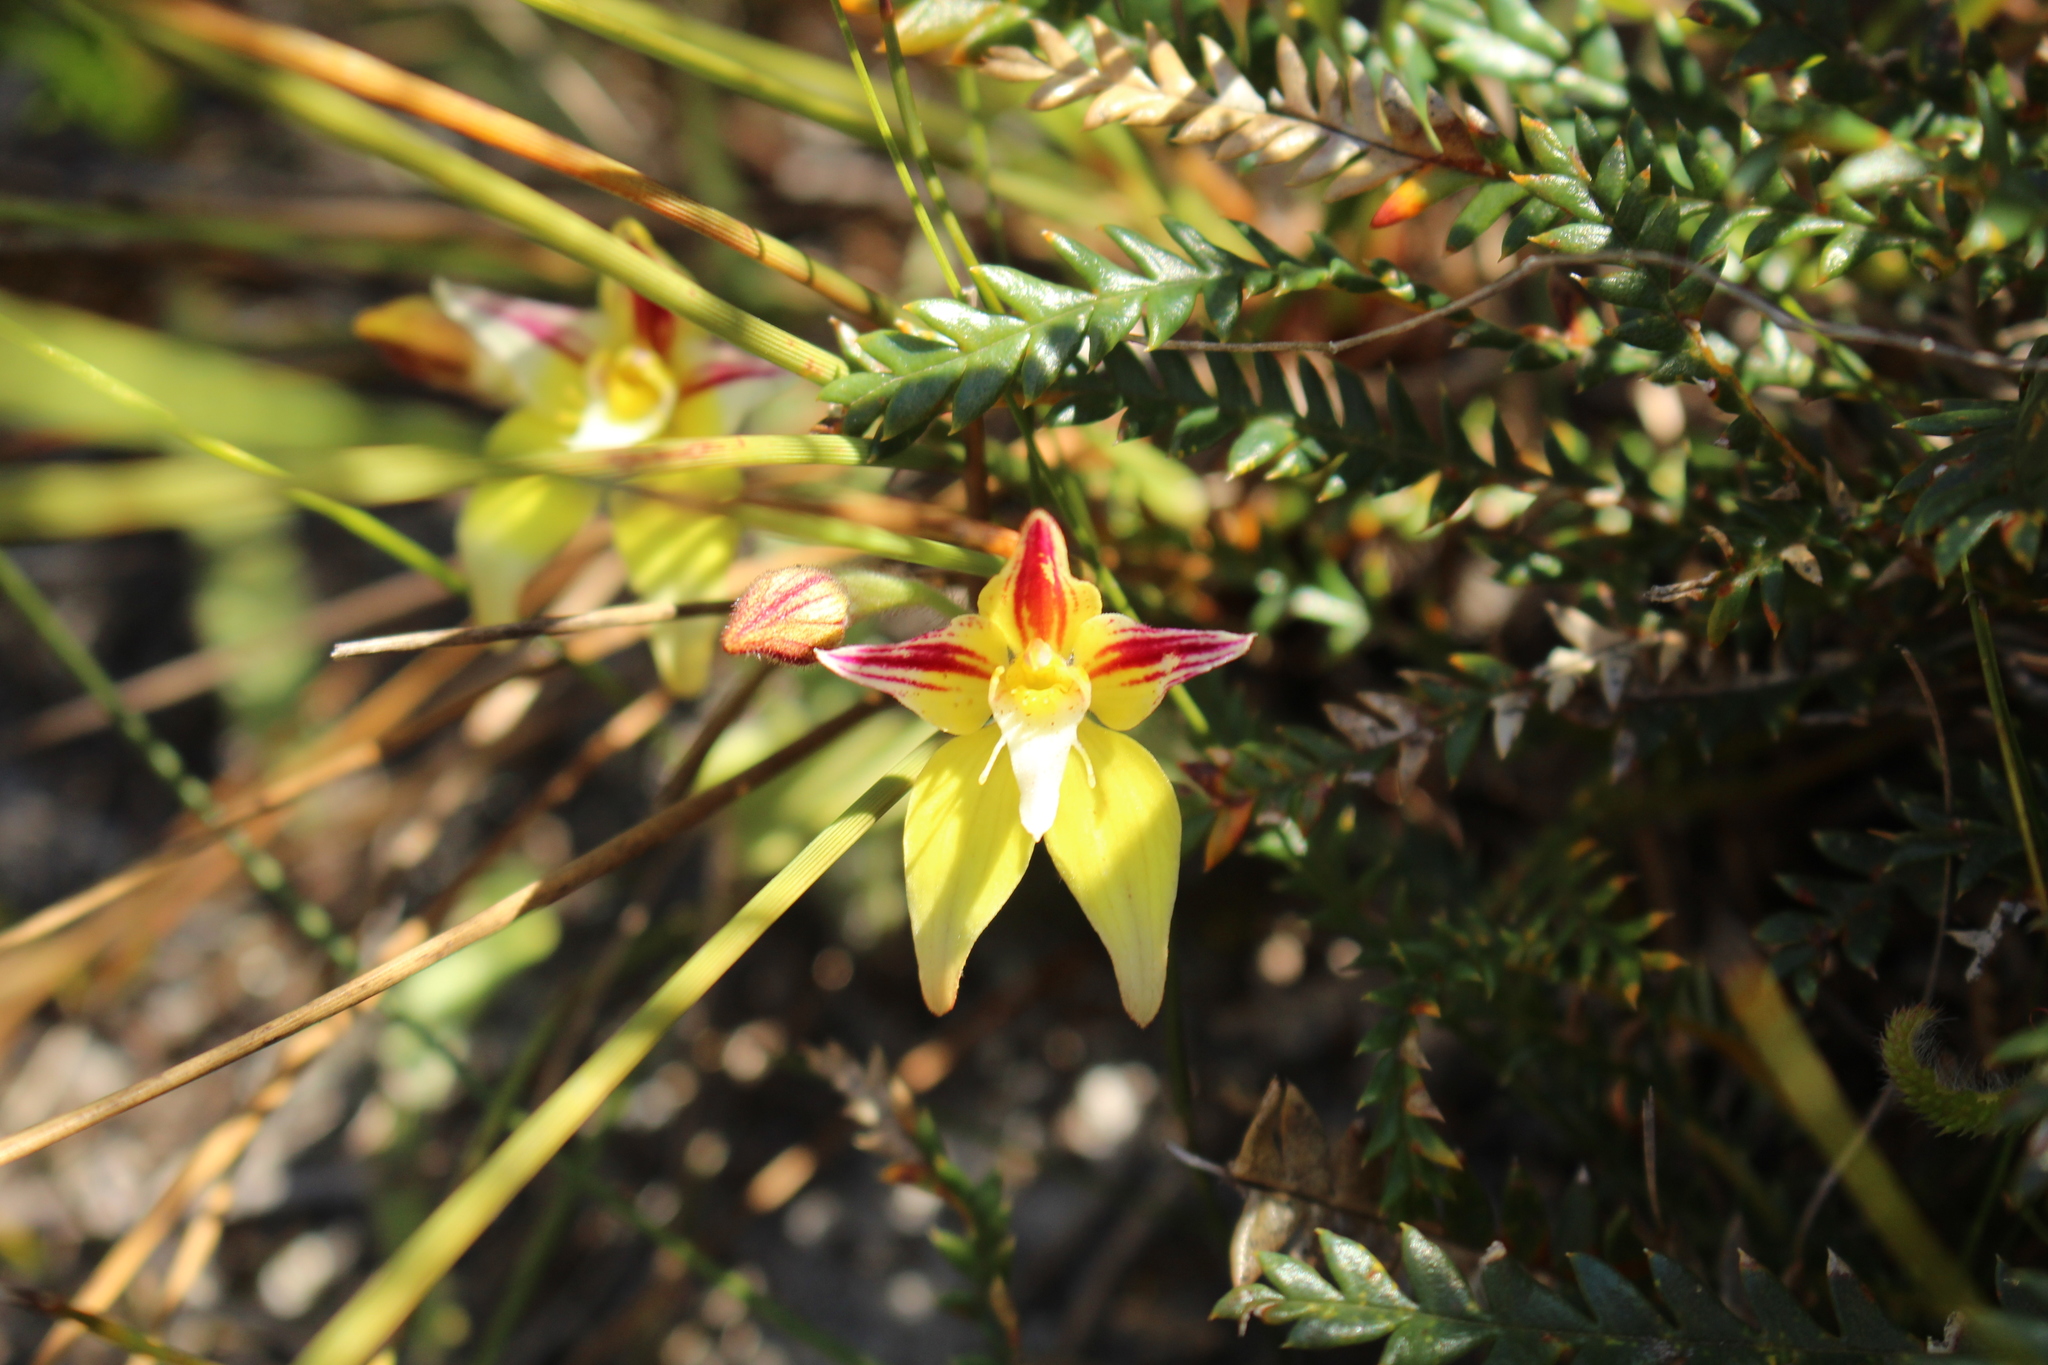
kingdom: Plantae
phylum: Tracheophyta
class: Liliopsida
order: Asparagales
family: Orchidaceae
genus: Caladenia
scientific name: Caladenia flava
